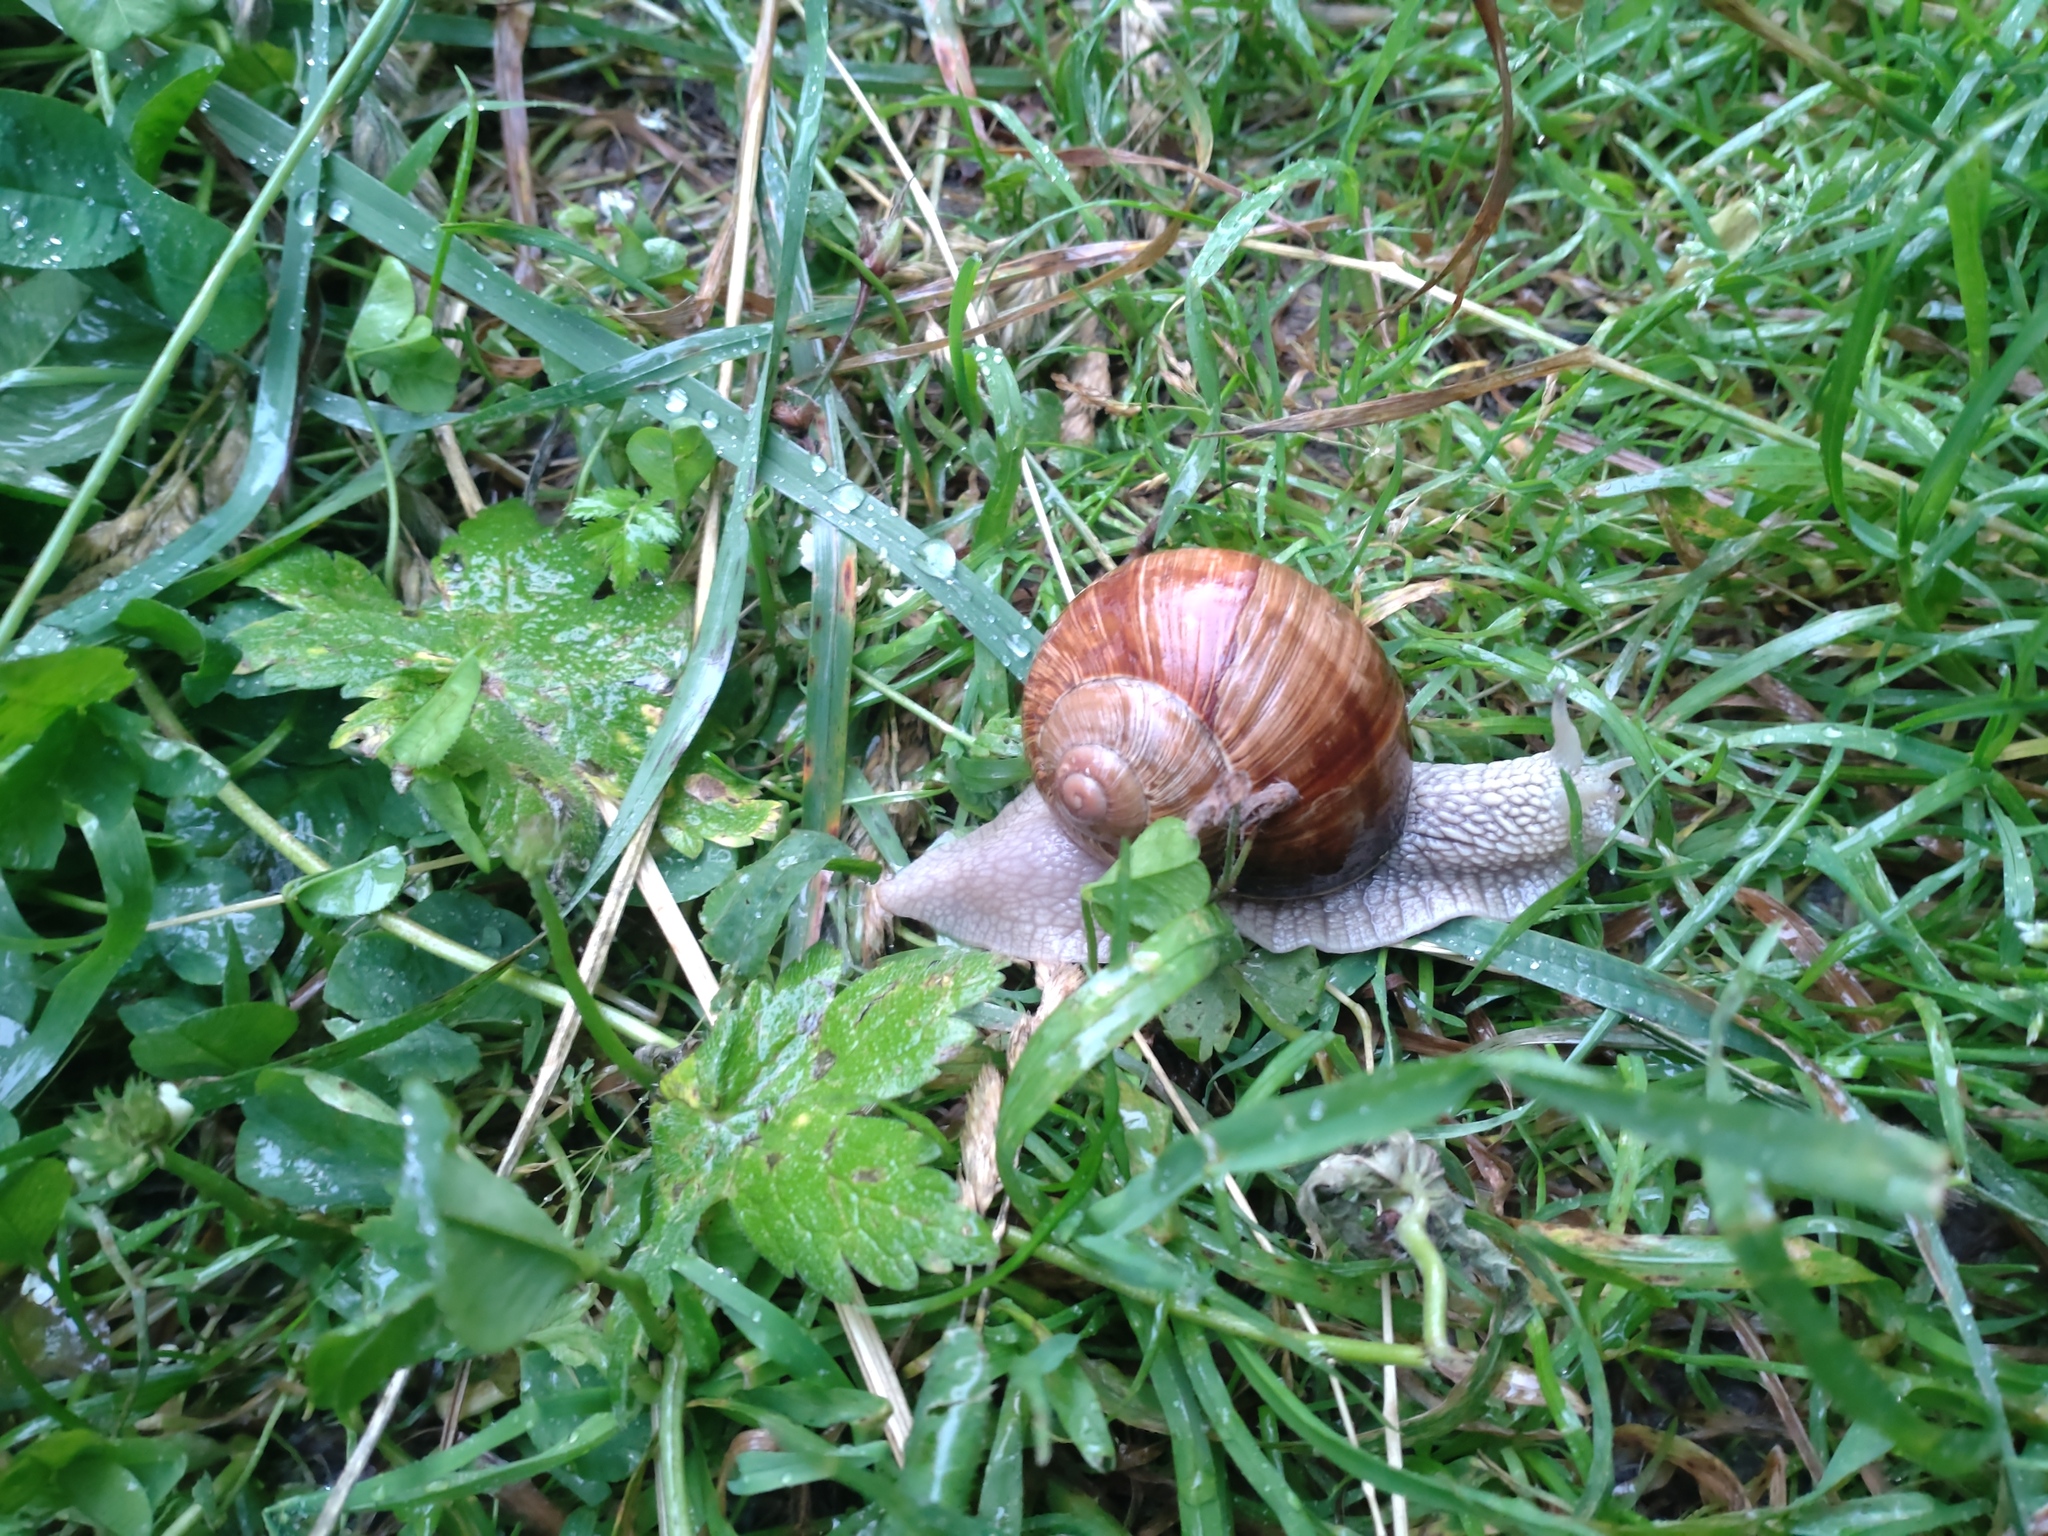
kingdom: Animalia
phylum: Mollusca
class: Gastropoda
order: Stylommatophora
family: Helicidae
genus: Helix
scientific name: Helix pomatia
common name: Roman snail
